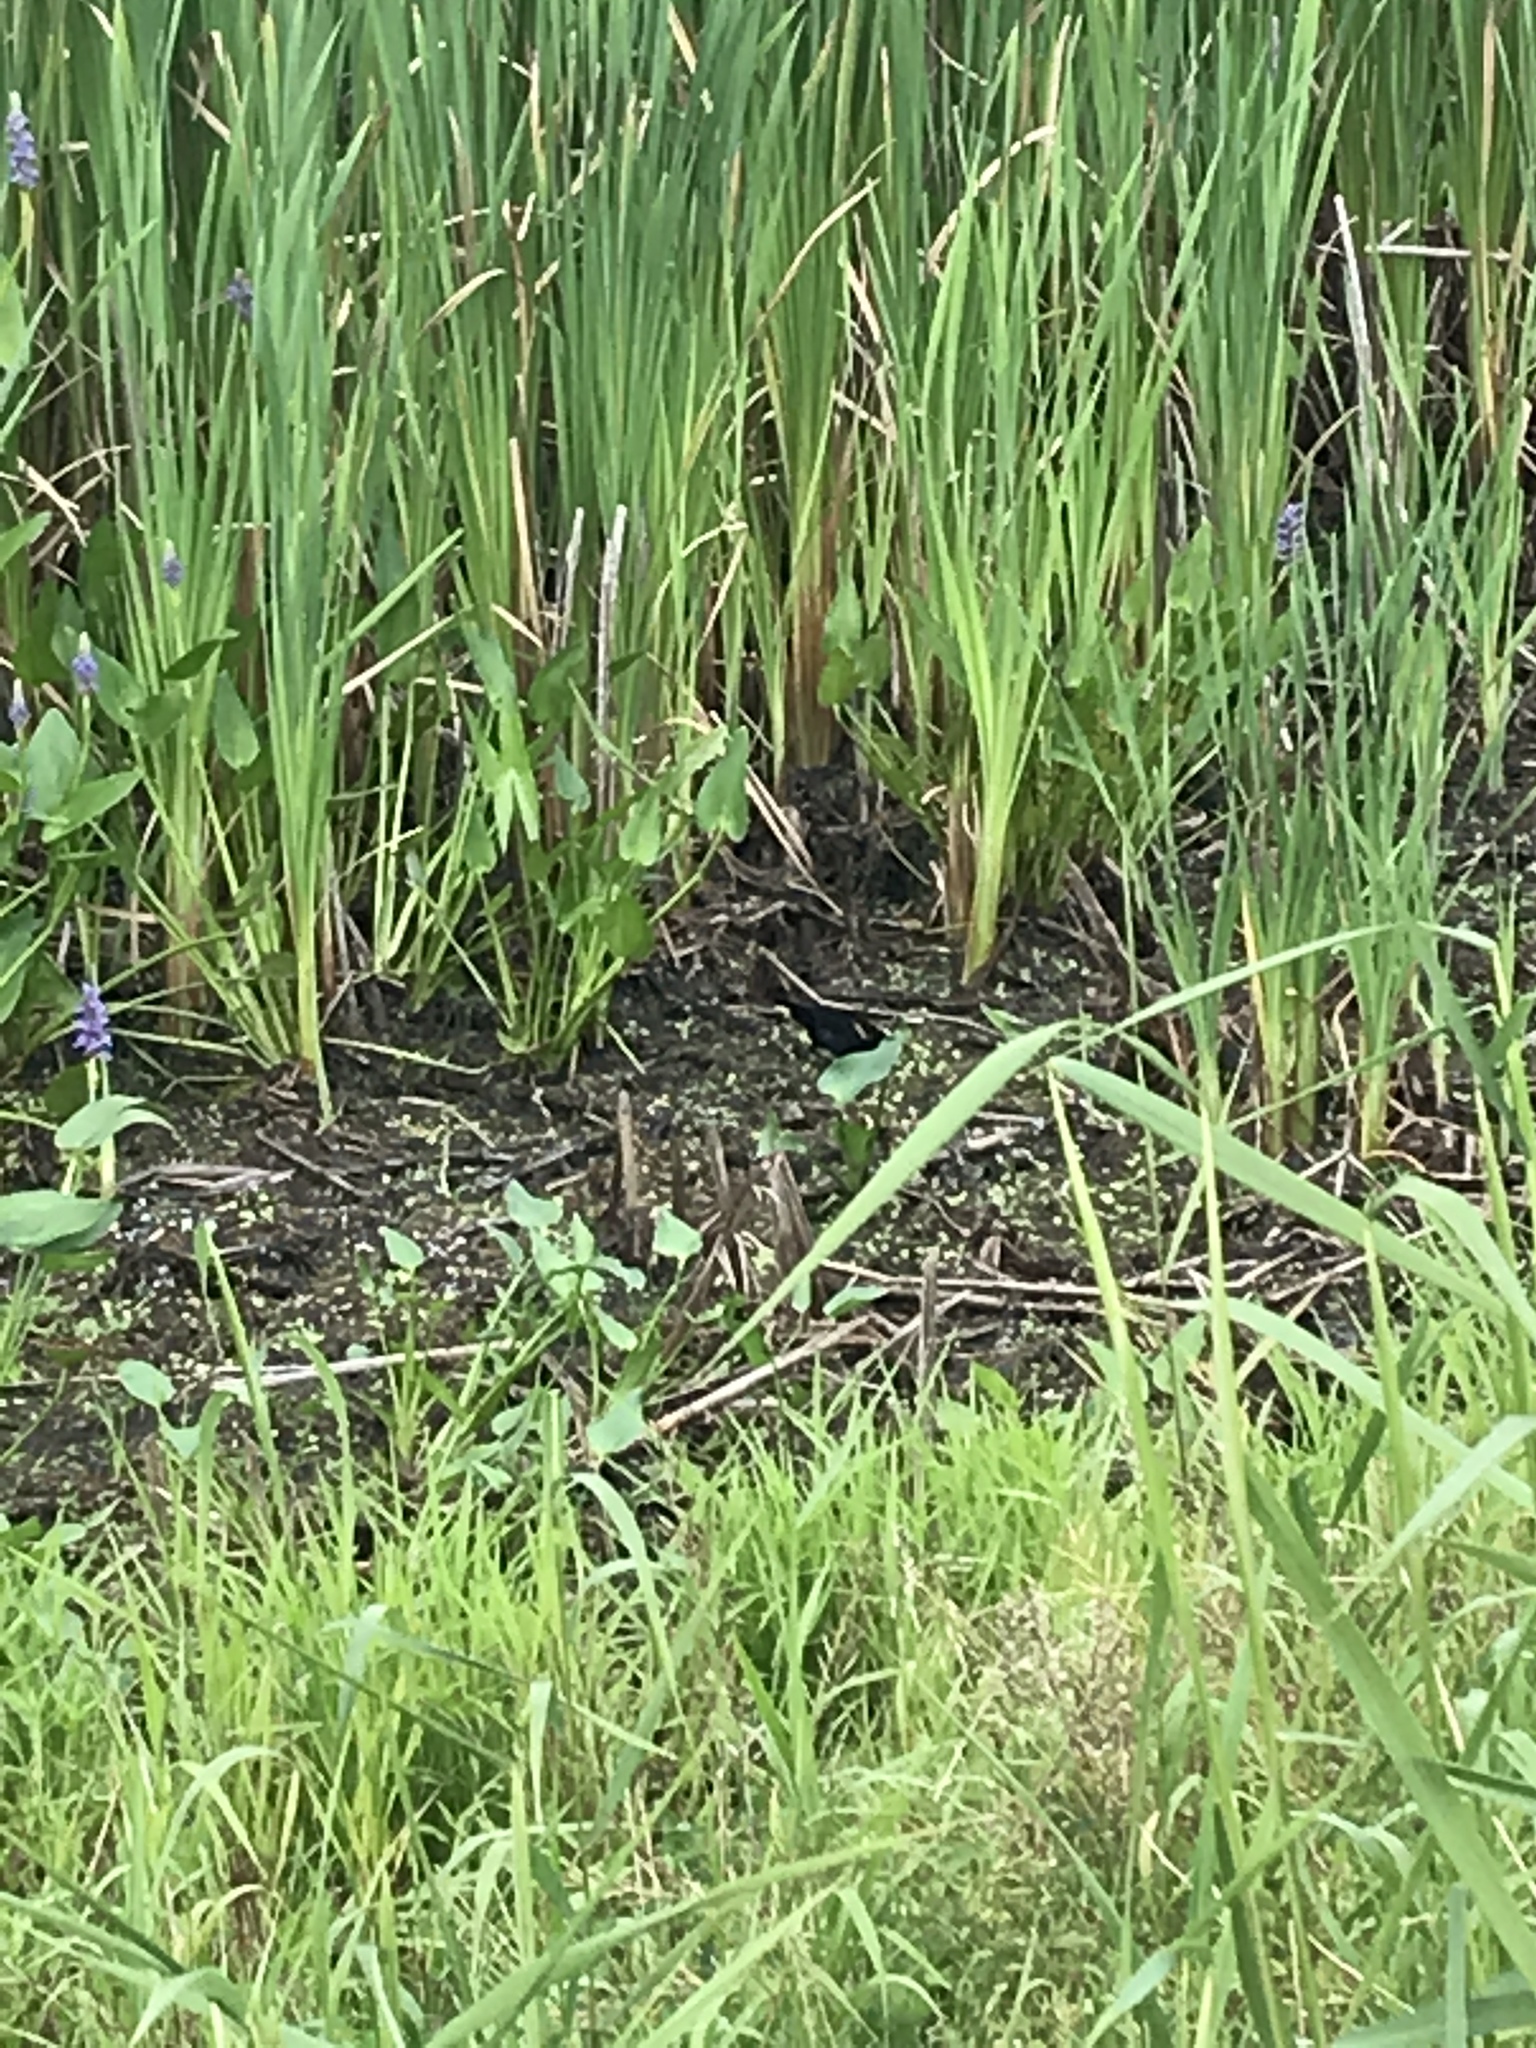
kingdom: Animalia
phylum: Chordata
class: Aves
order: Passeriformes
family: Icteridae
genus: Agelaius
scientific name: Agelaius phoeniceus
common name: Red-winged blackbird
